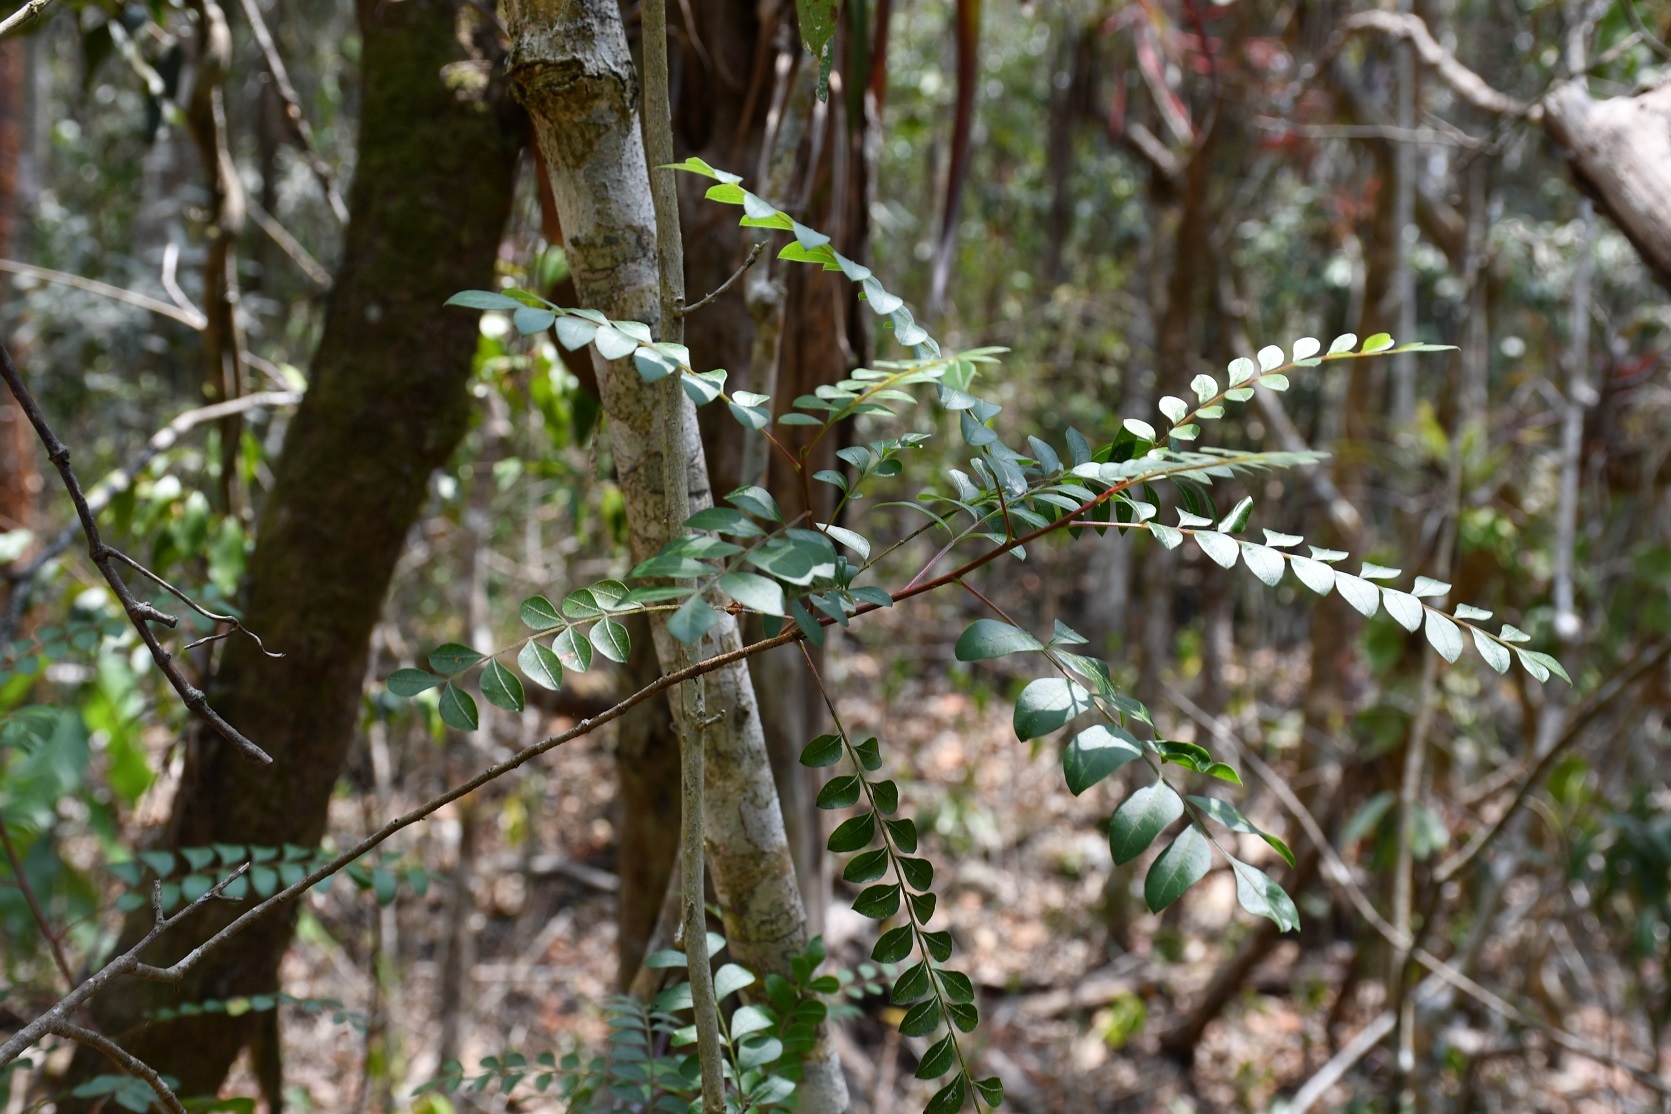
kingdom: Plantae
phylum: Tracheophyta
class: Magnoliopsida
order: Sapindales
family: Anacardiaceae
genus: Pistacia
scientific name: Pistacia mexicana
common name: Mexican pistachio
